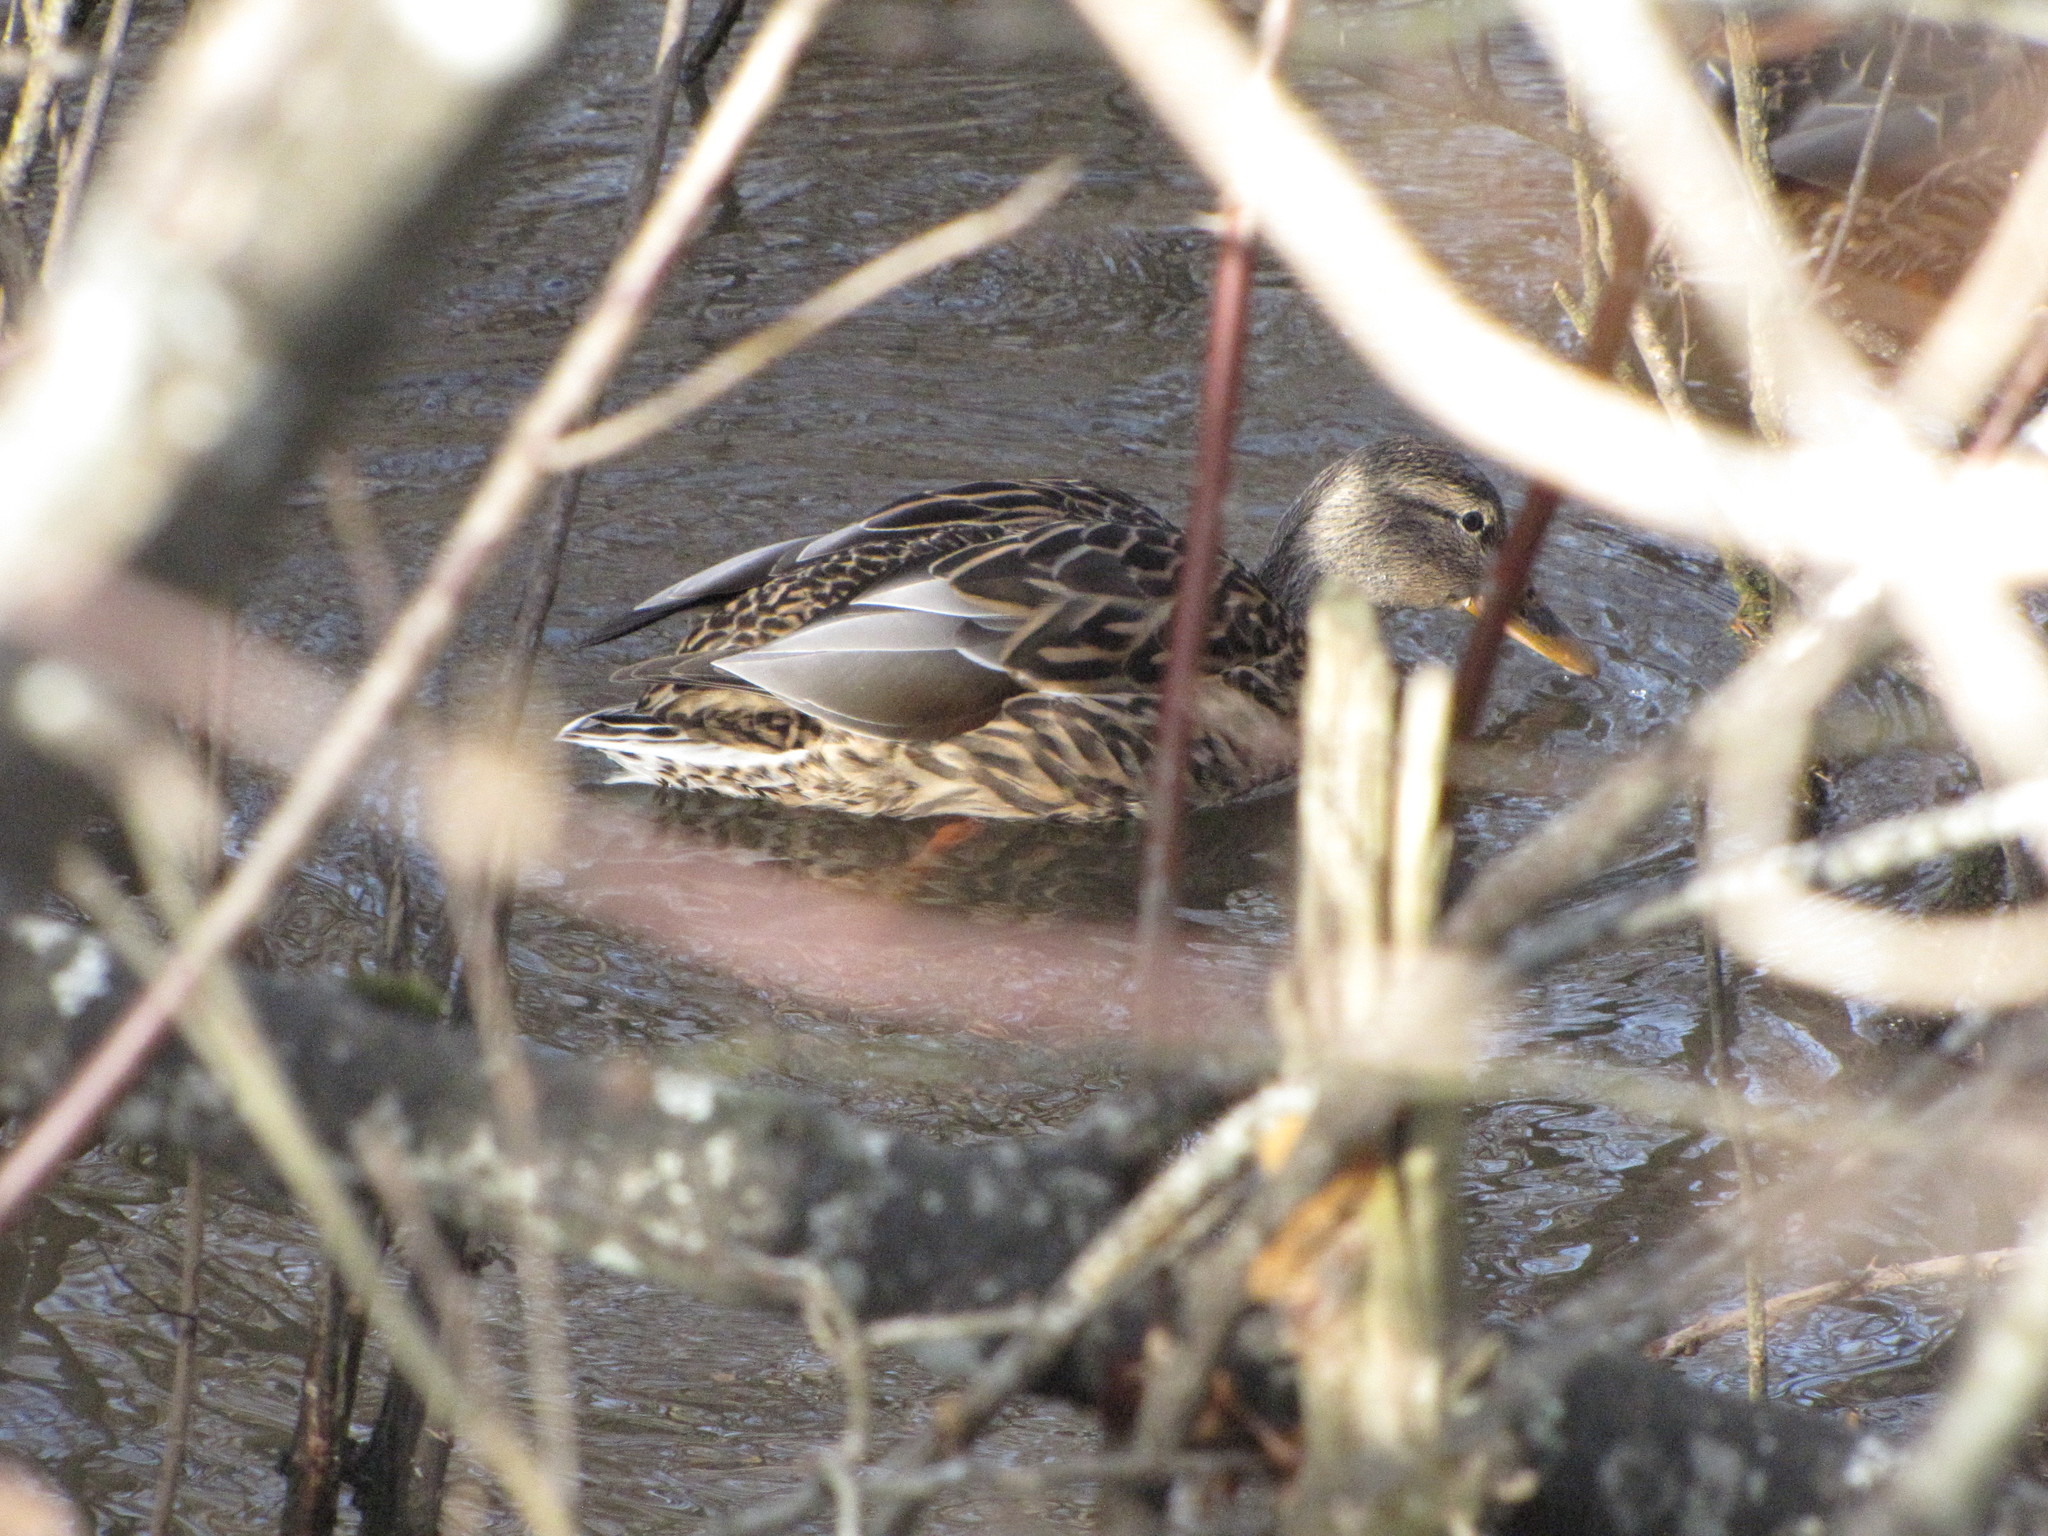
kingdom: Animalia
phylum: Chordata
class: Aves
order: Anseriformes
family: Anatidae
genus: Anas
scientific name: Anas platyrhynchos
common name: Mallard
